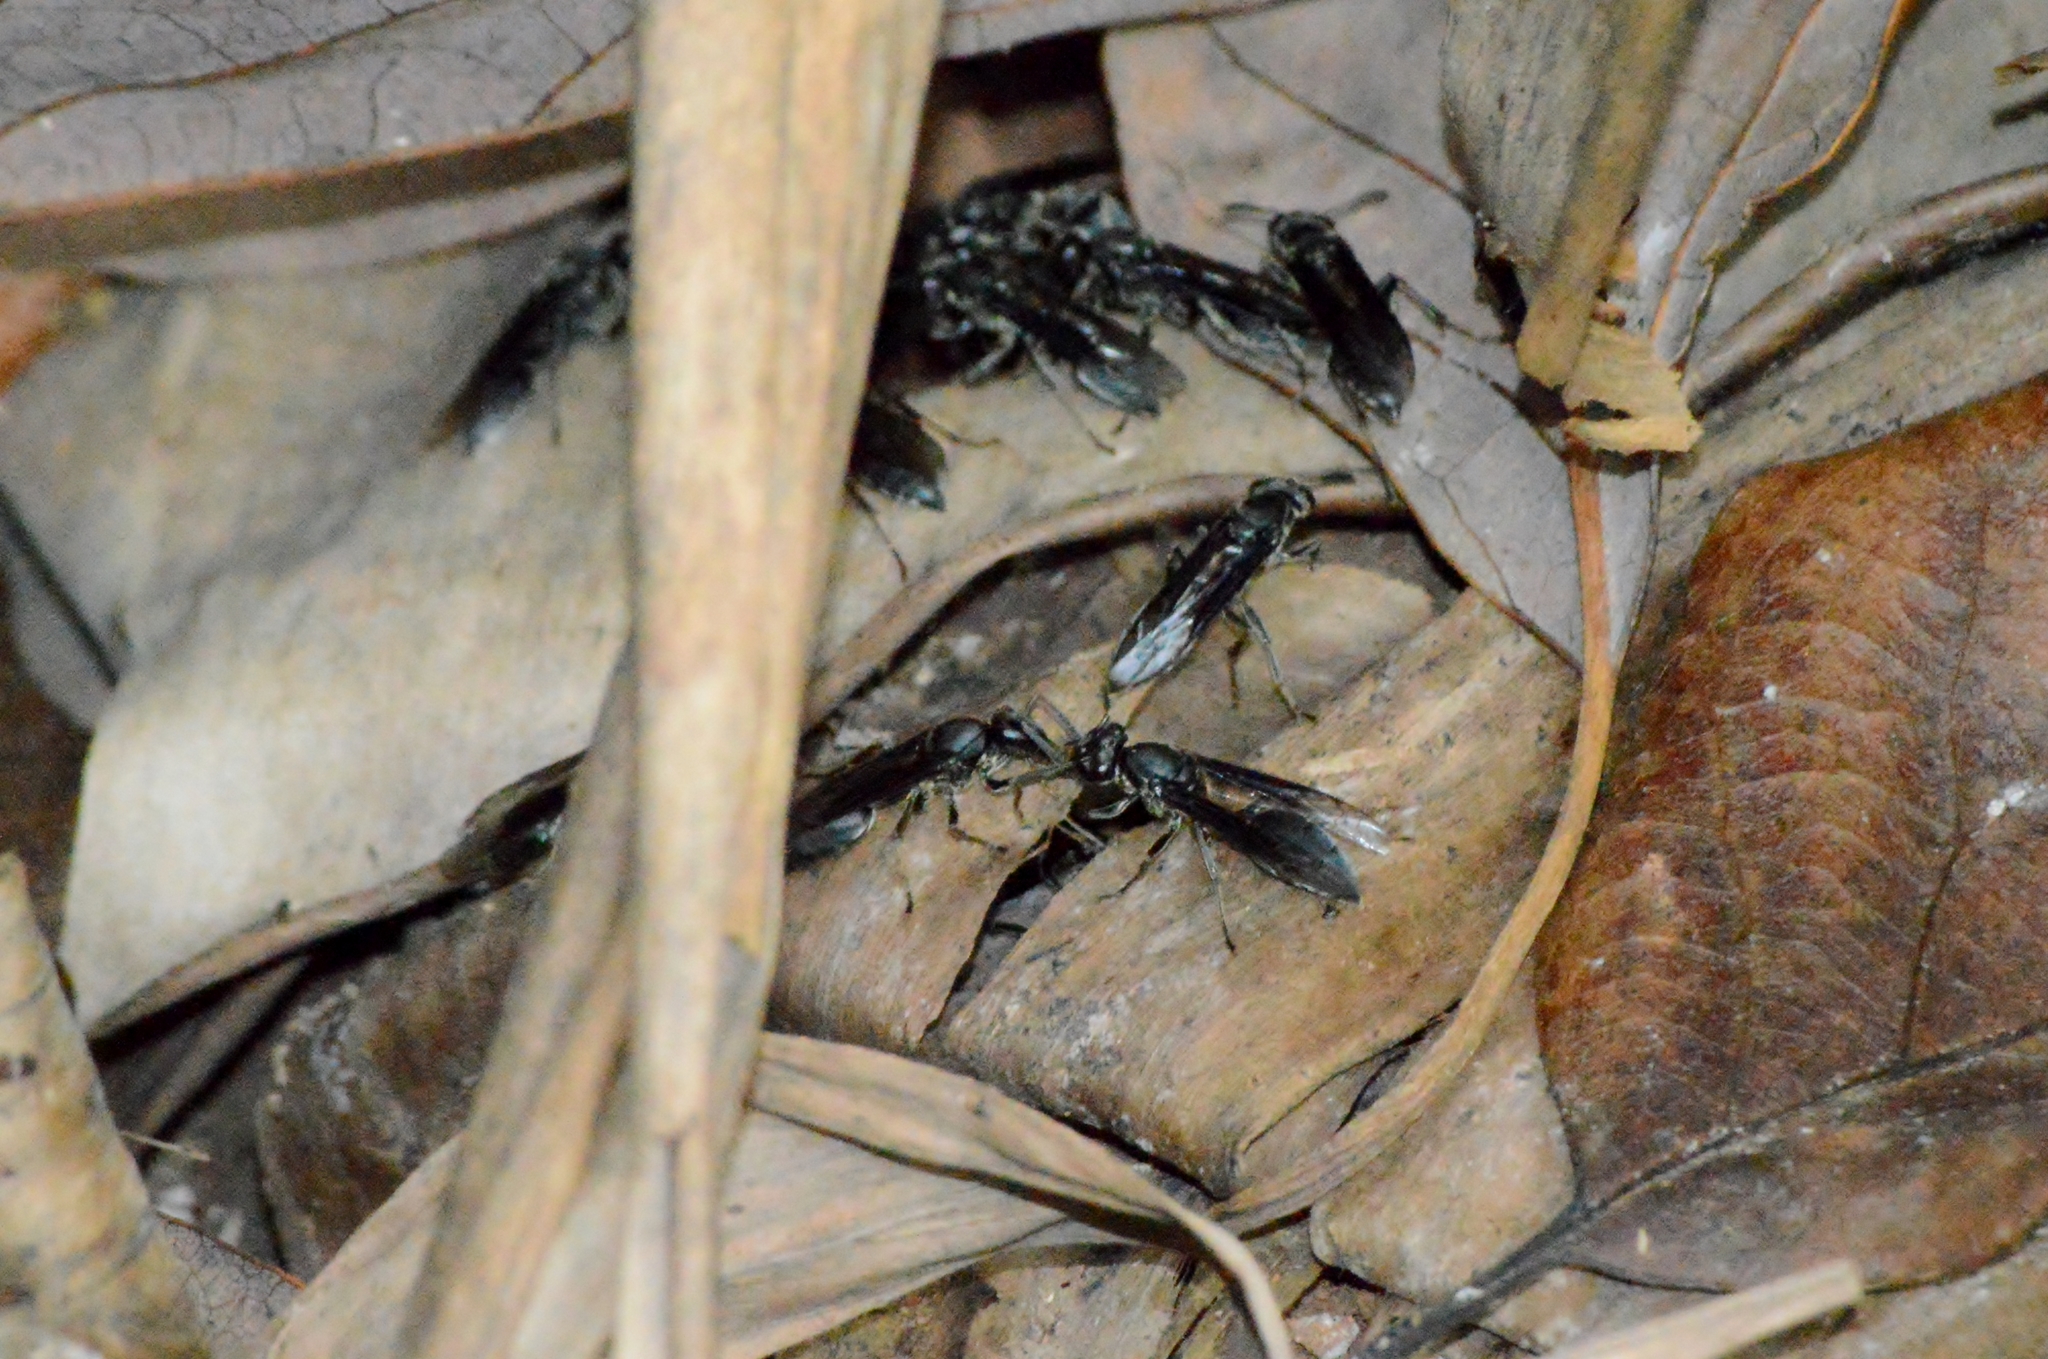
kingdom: Animalia
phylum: Arthropoda
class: Insecta
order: Hymenoptera
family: Eumenidae
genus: Polybia
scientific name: Polybia ignobilis
